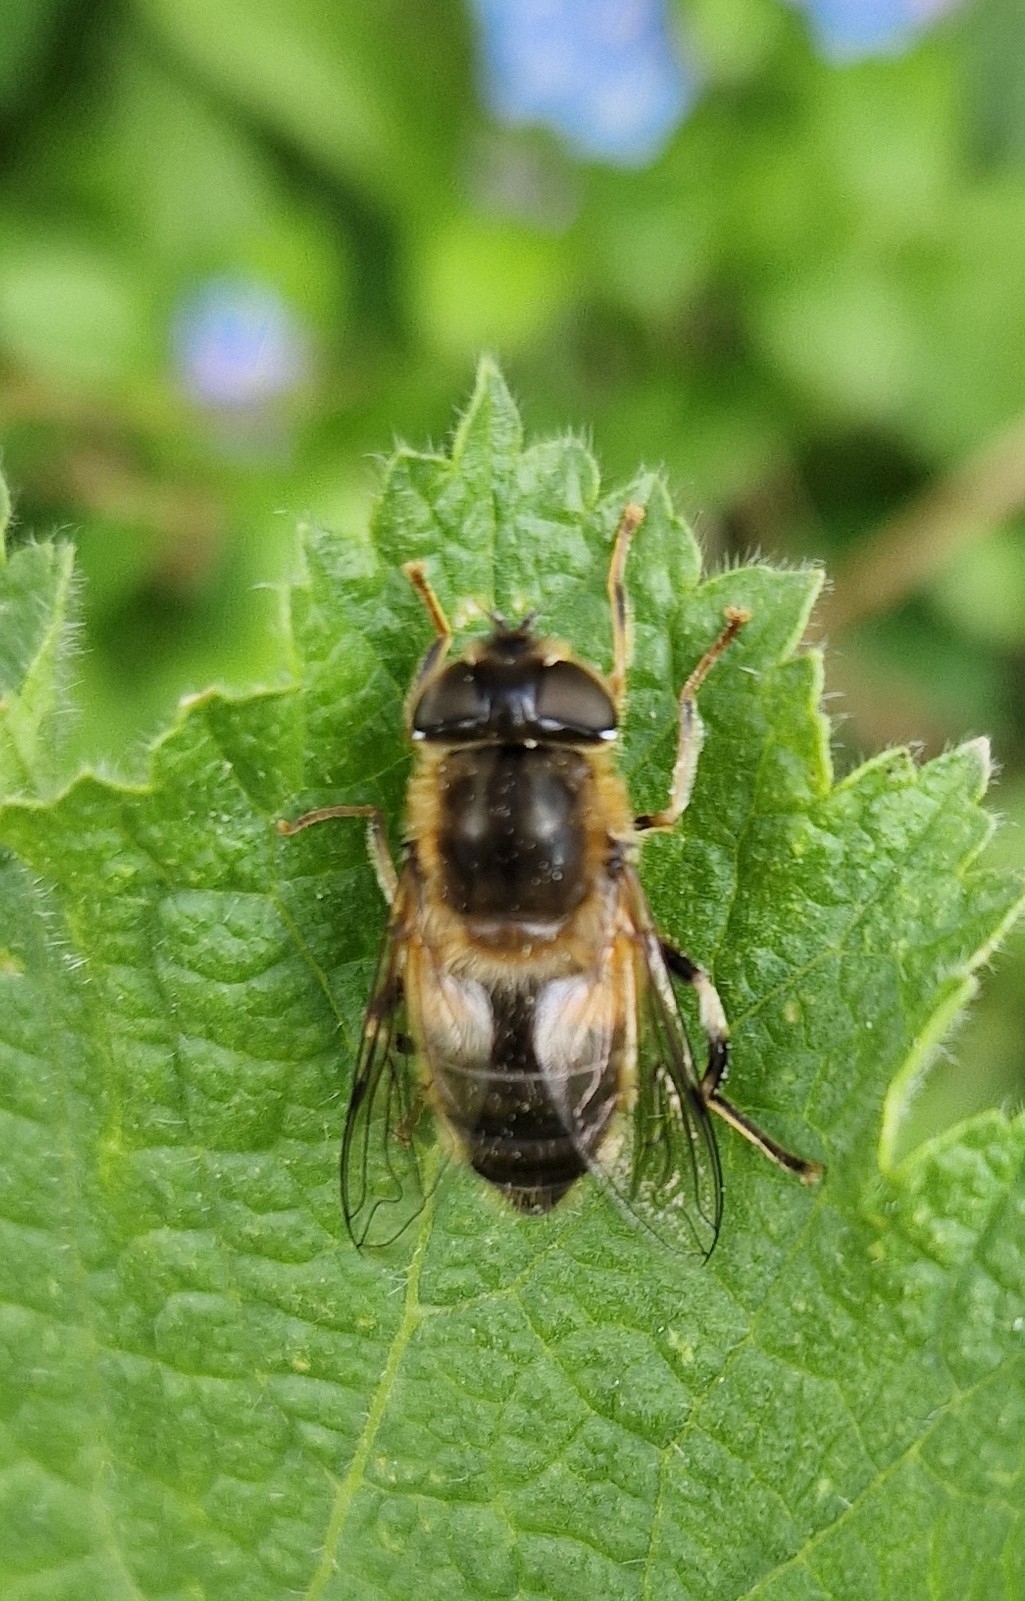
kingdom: Animalia
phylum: Arthropoda
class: Insecta
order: Diptera
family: Syrphidae
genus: Eristalis
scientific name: Eristalis pertinax
